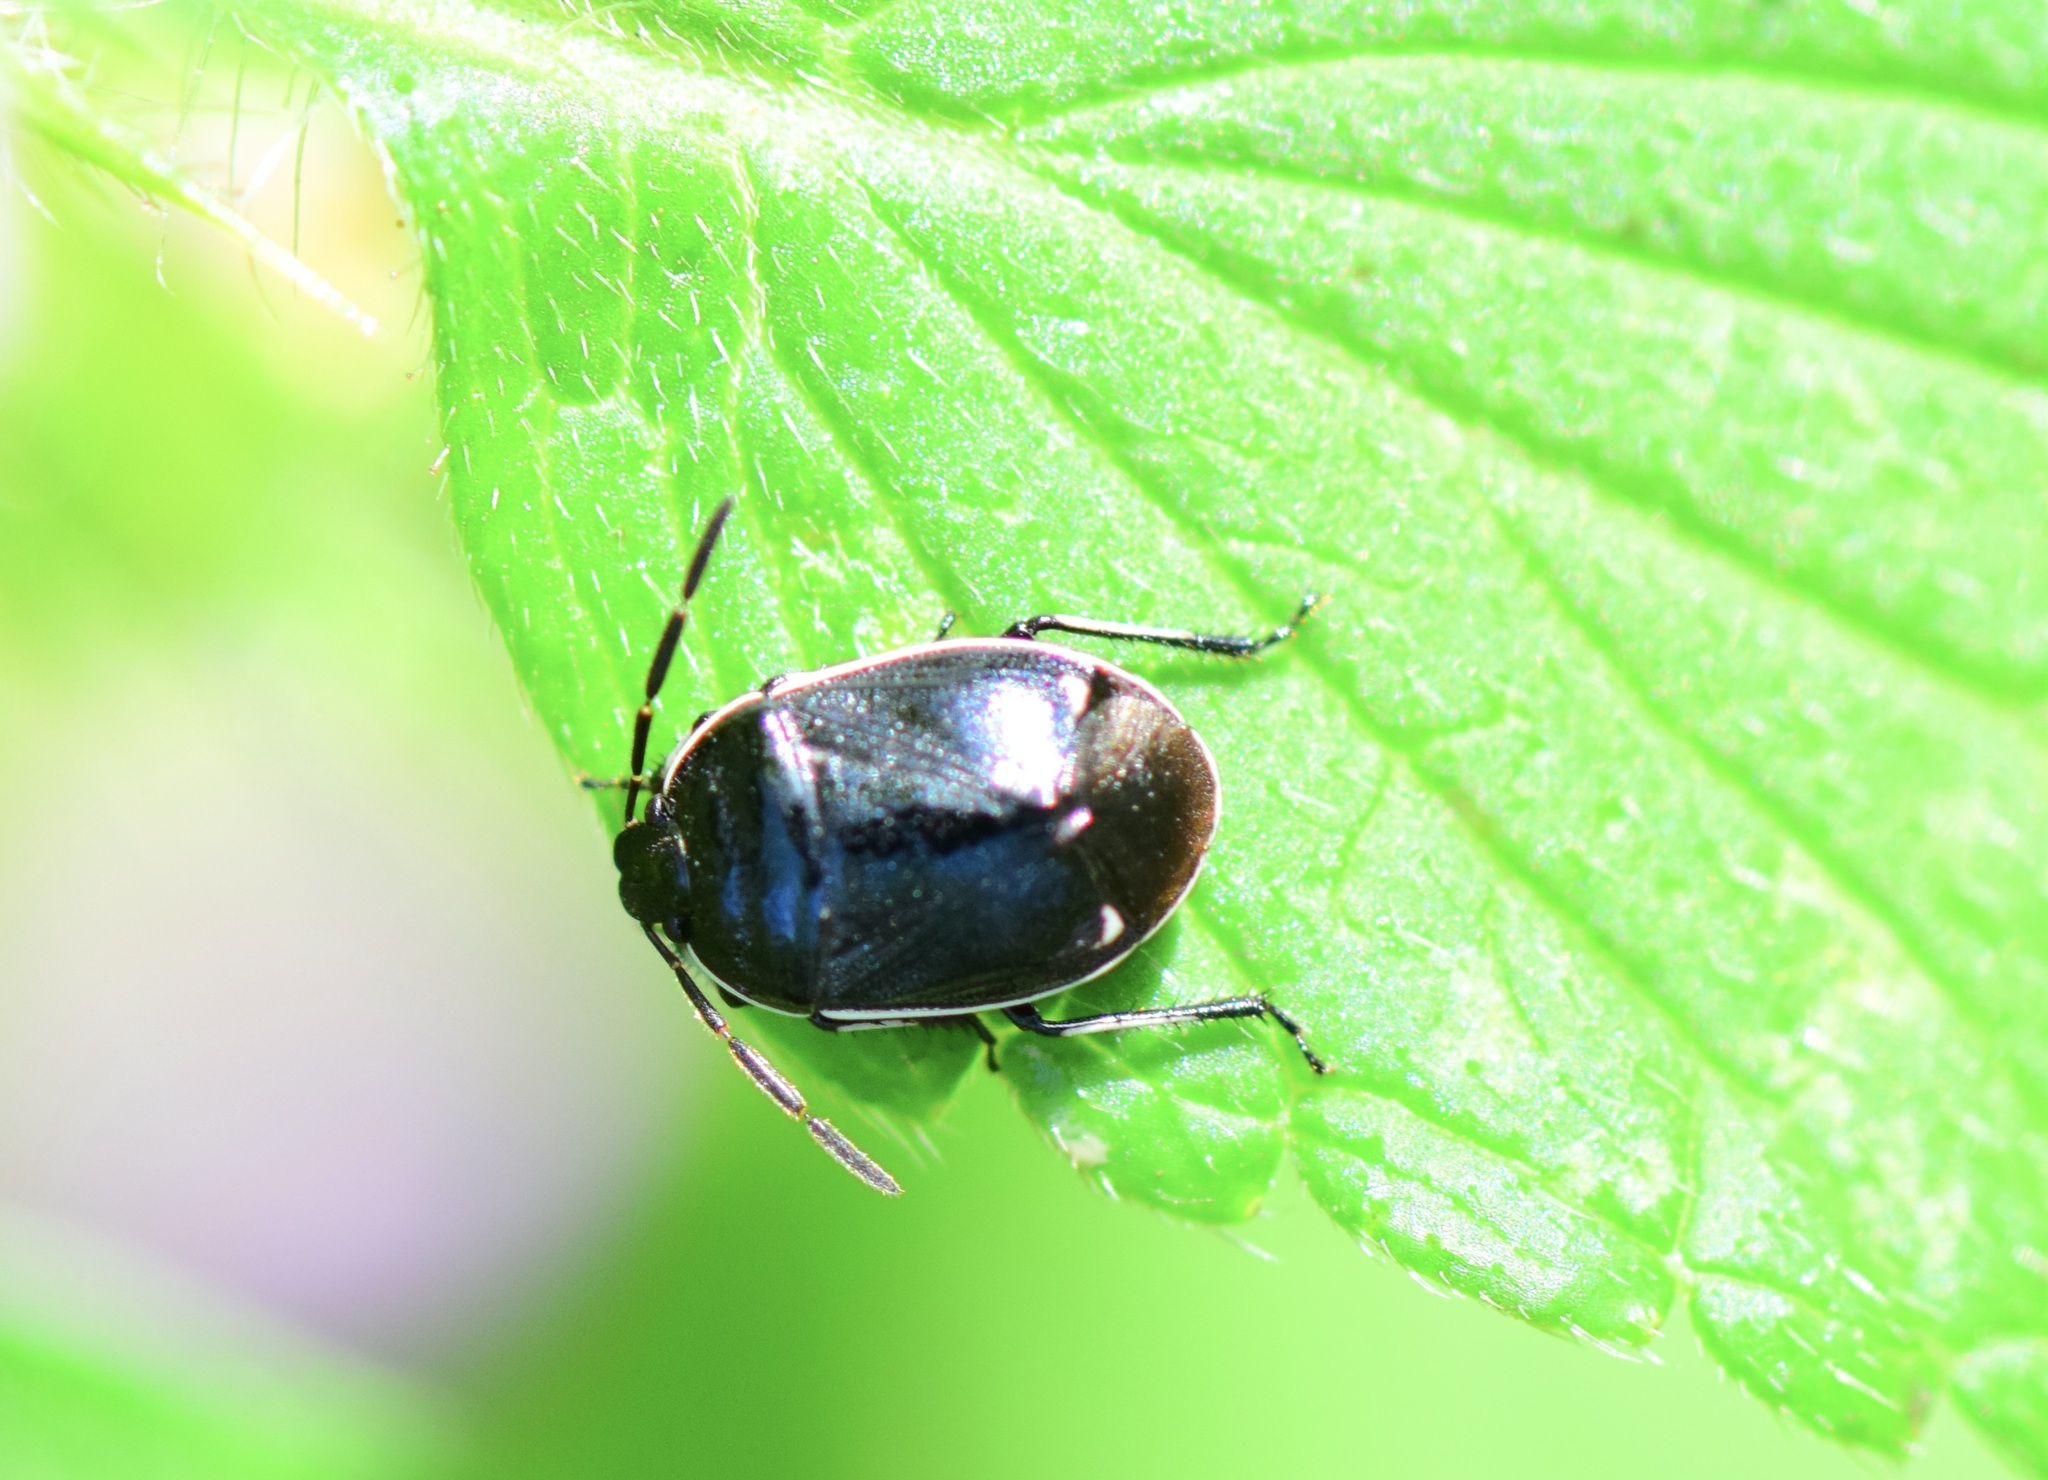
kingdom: Animalia
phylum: Arthropoda
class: Insecta
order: Hemiptera
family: Cydnidae
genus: Sehirus
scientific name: Sehirus cinctus
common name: White-margined burrower bug
